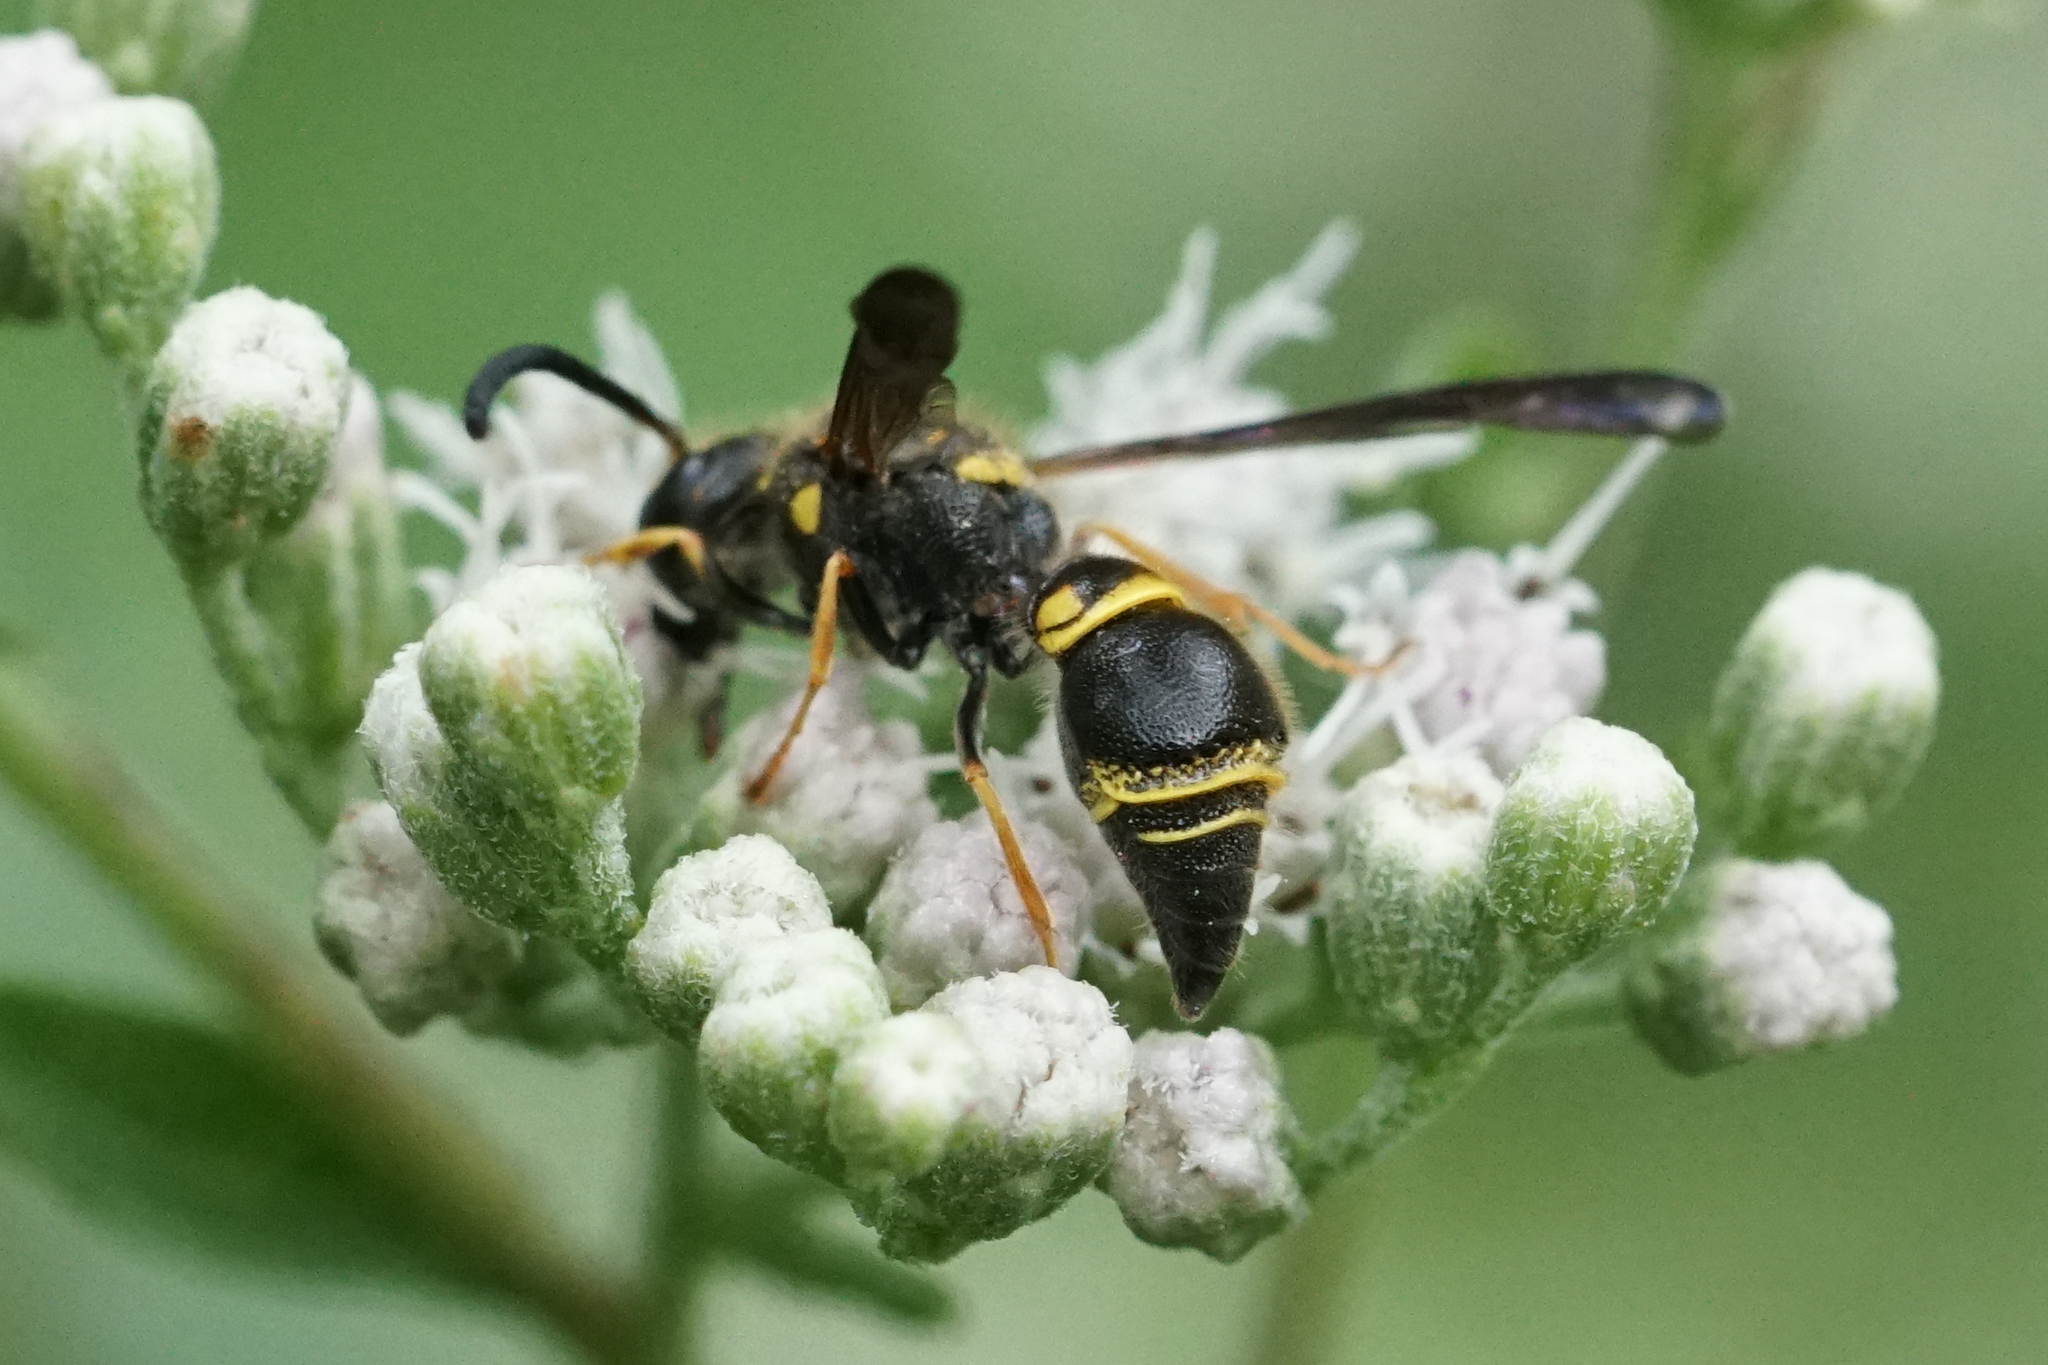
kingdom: Animalia
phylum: Arthropoda
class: Insecta
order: Hymenoptera
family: Vespidae
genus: Ancistrocerus
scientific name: Ancistrocerus campestris
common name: Smiling mason wasp
